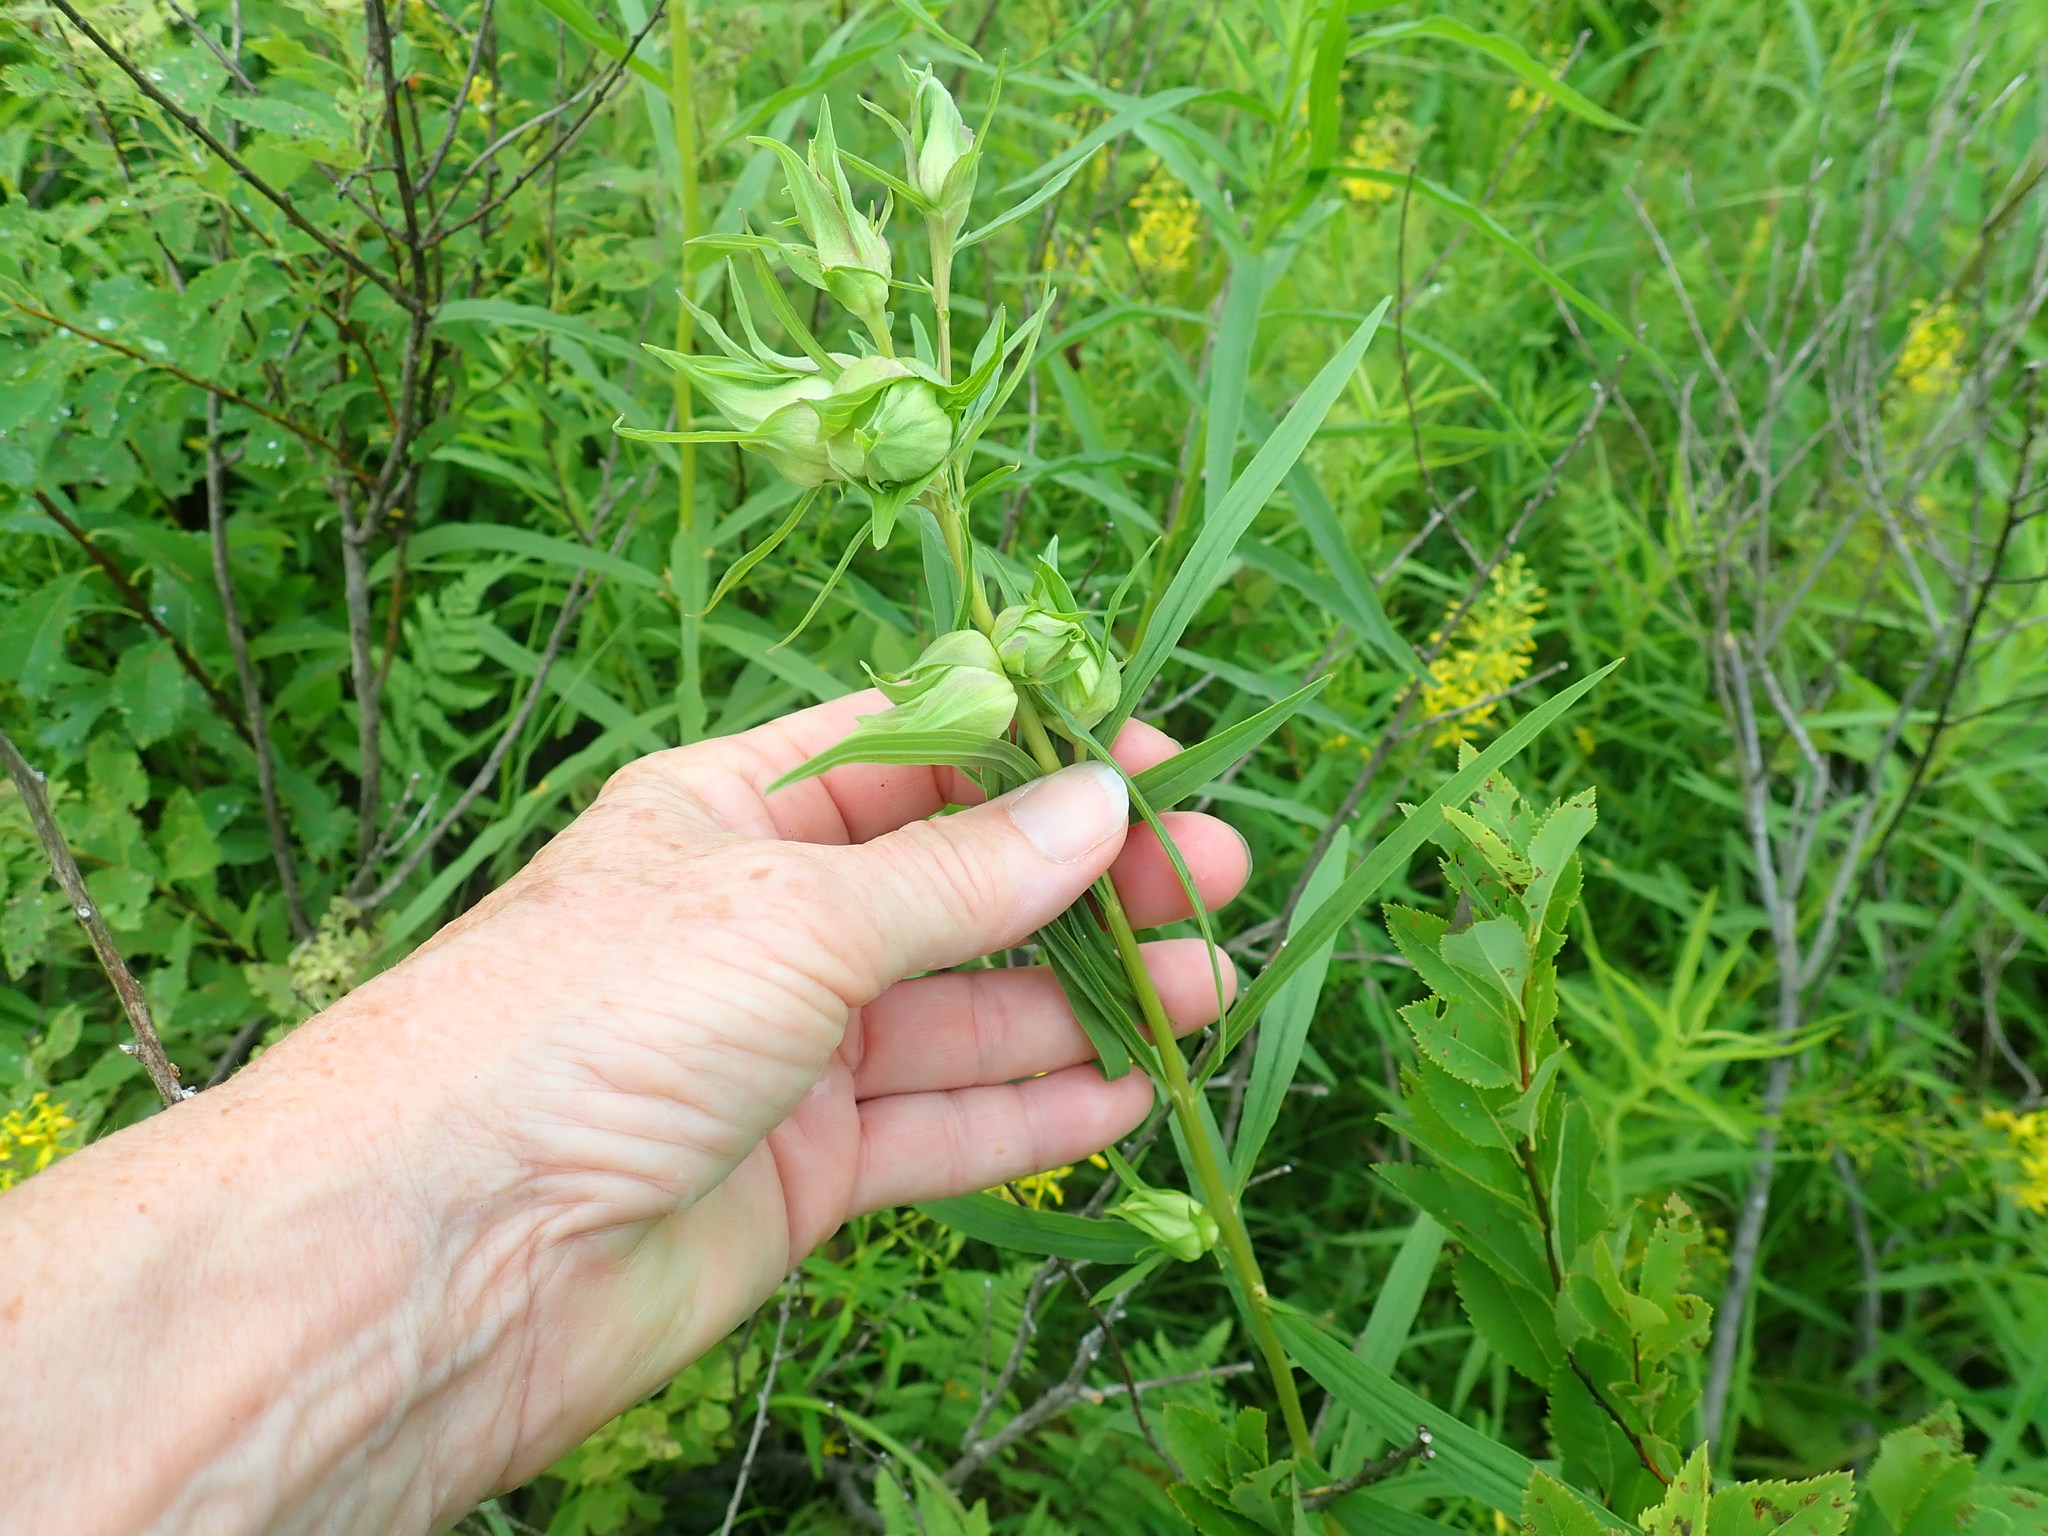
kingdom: Animalia
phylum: Arthropoda
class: Insecta
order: Diptera
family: Cecidomyiidae
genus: Rhopalomyia
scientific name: Rhopalomyia lobata
